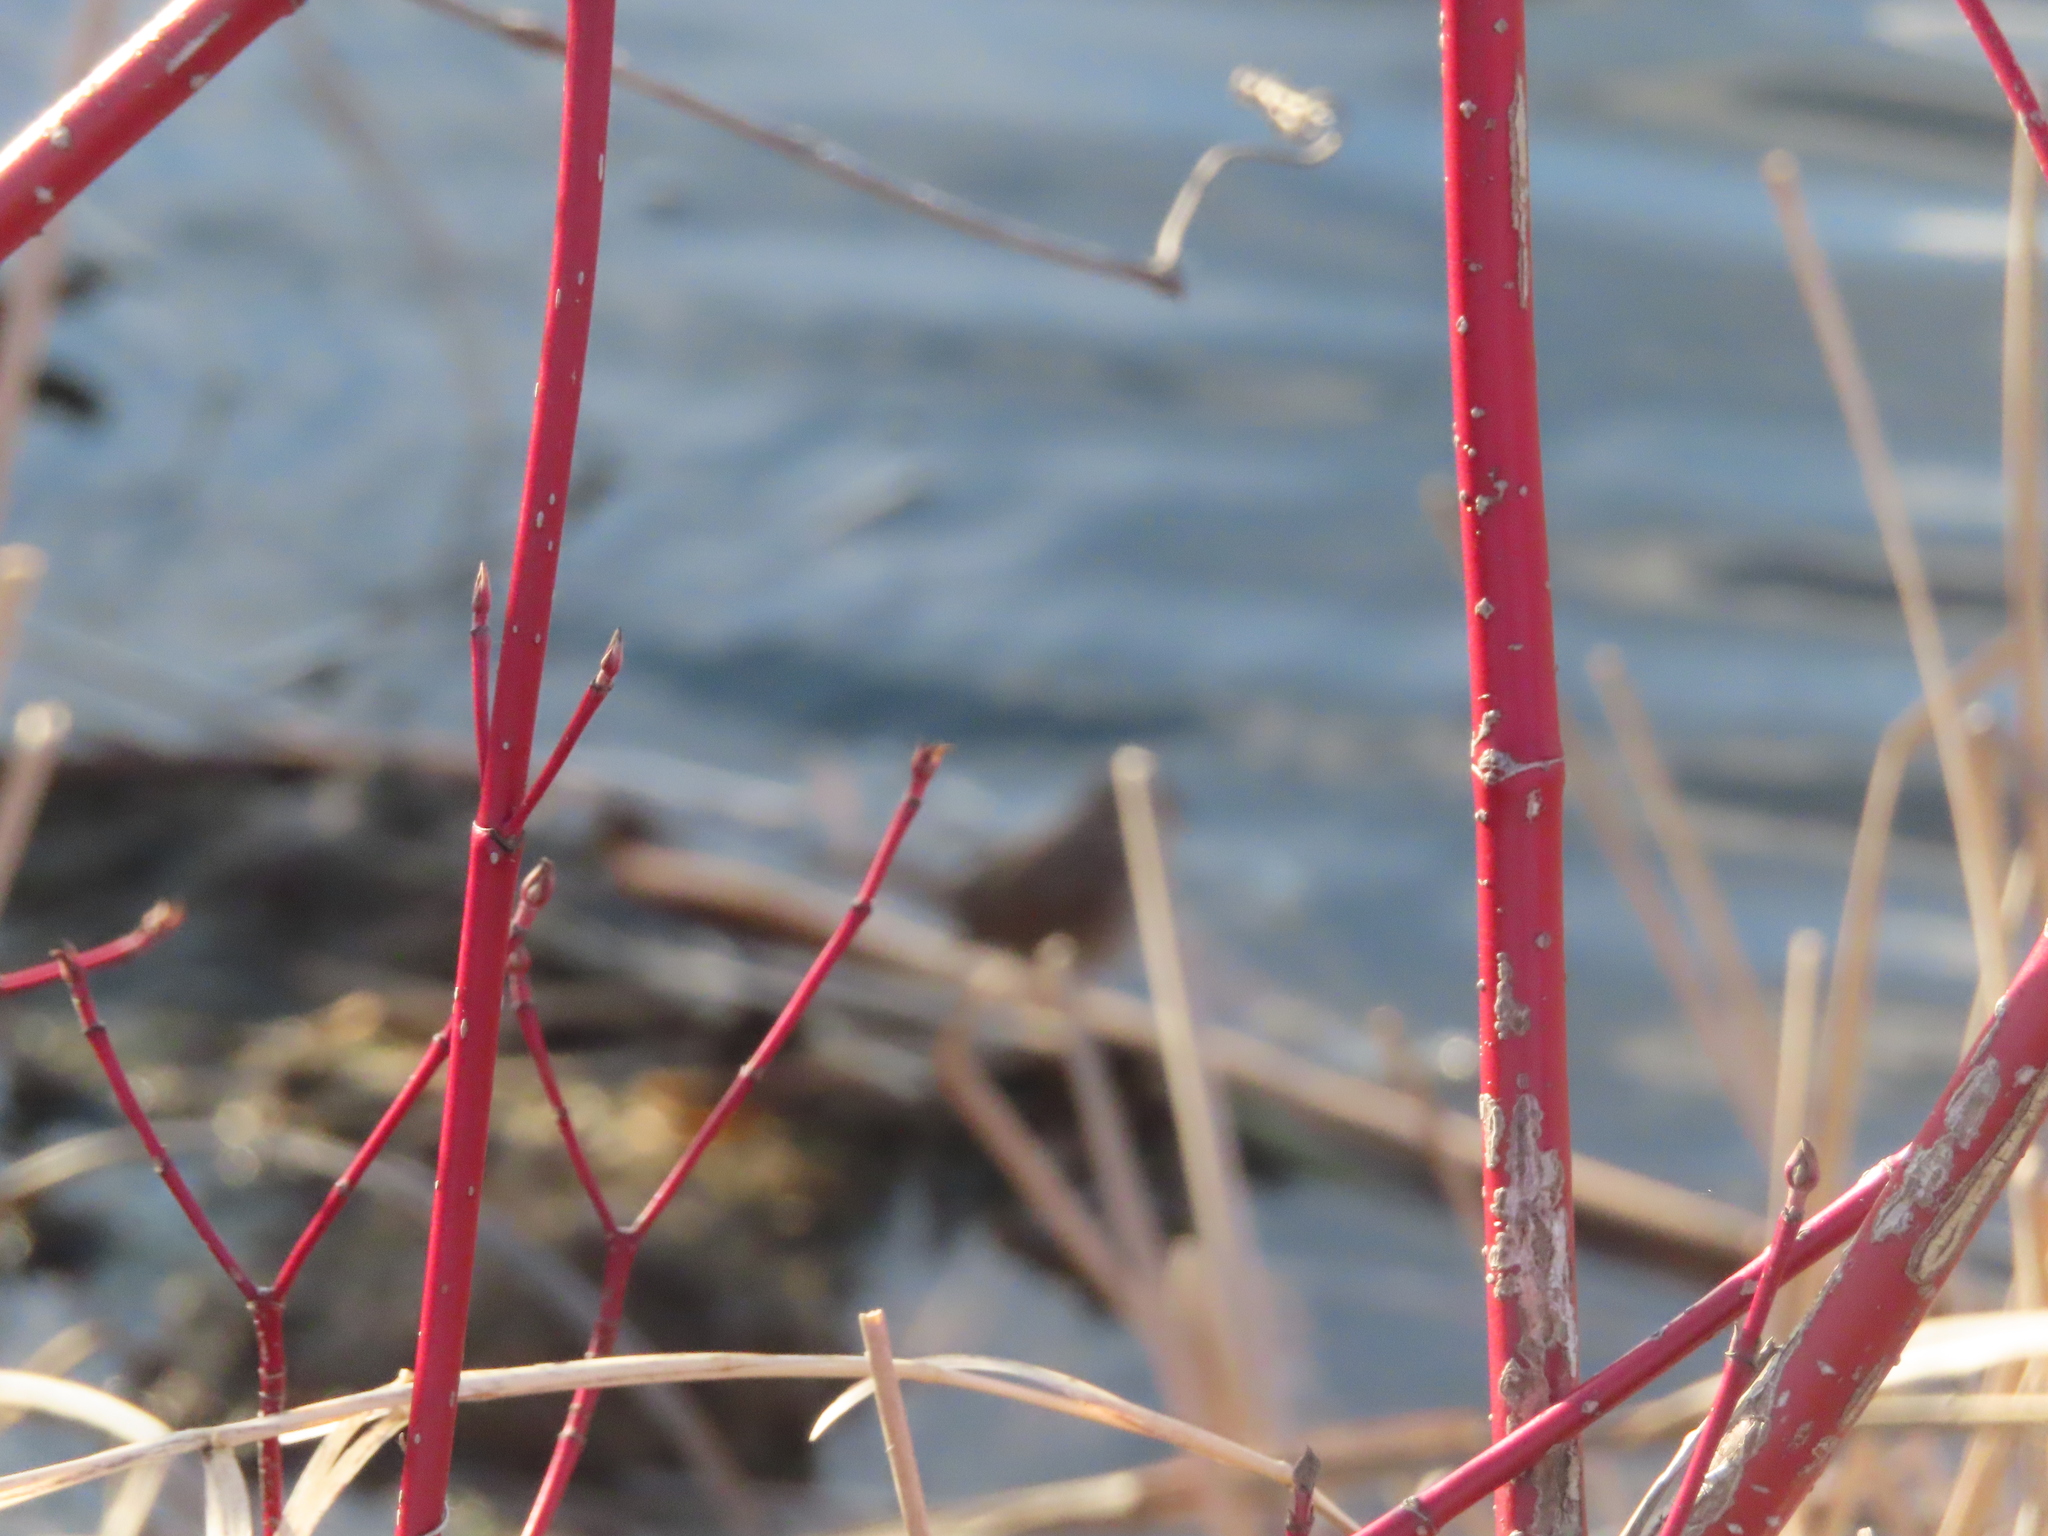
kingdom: Plantae
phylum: Tracheophyta
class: Magnoliopsida
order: Cornales
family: Cornaceae
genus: Cornus
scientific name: Cornus sericea
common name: Red-osier dogwood
